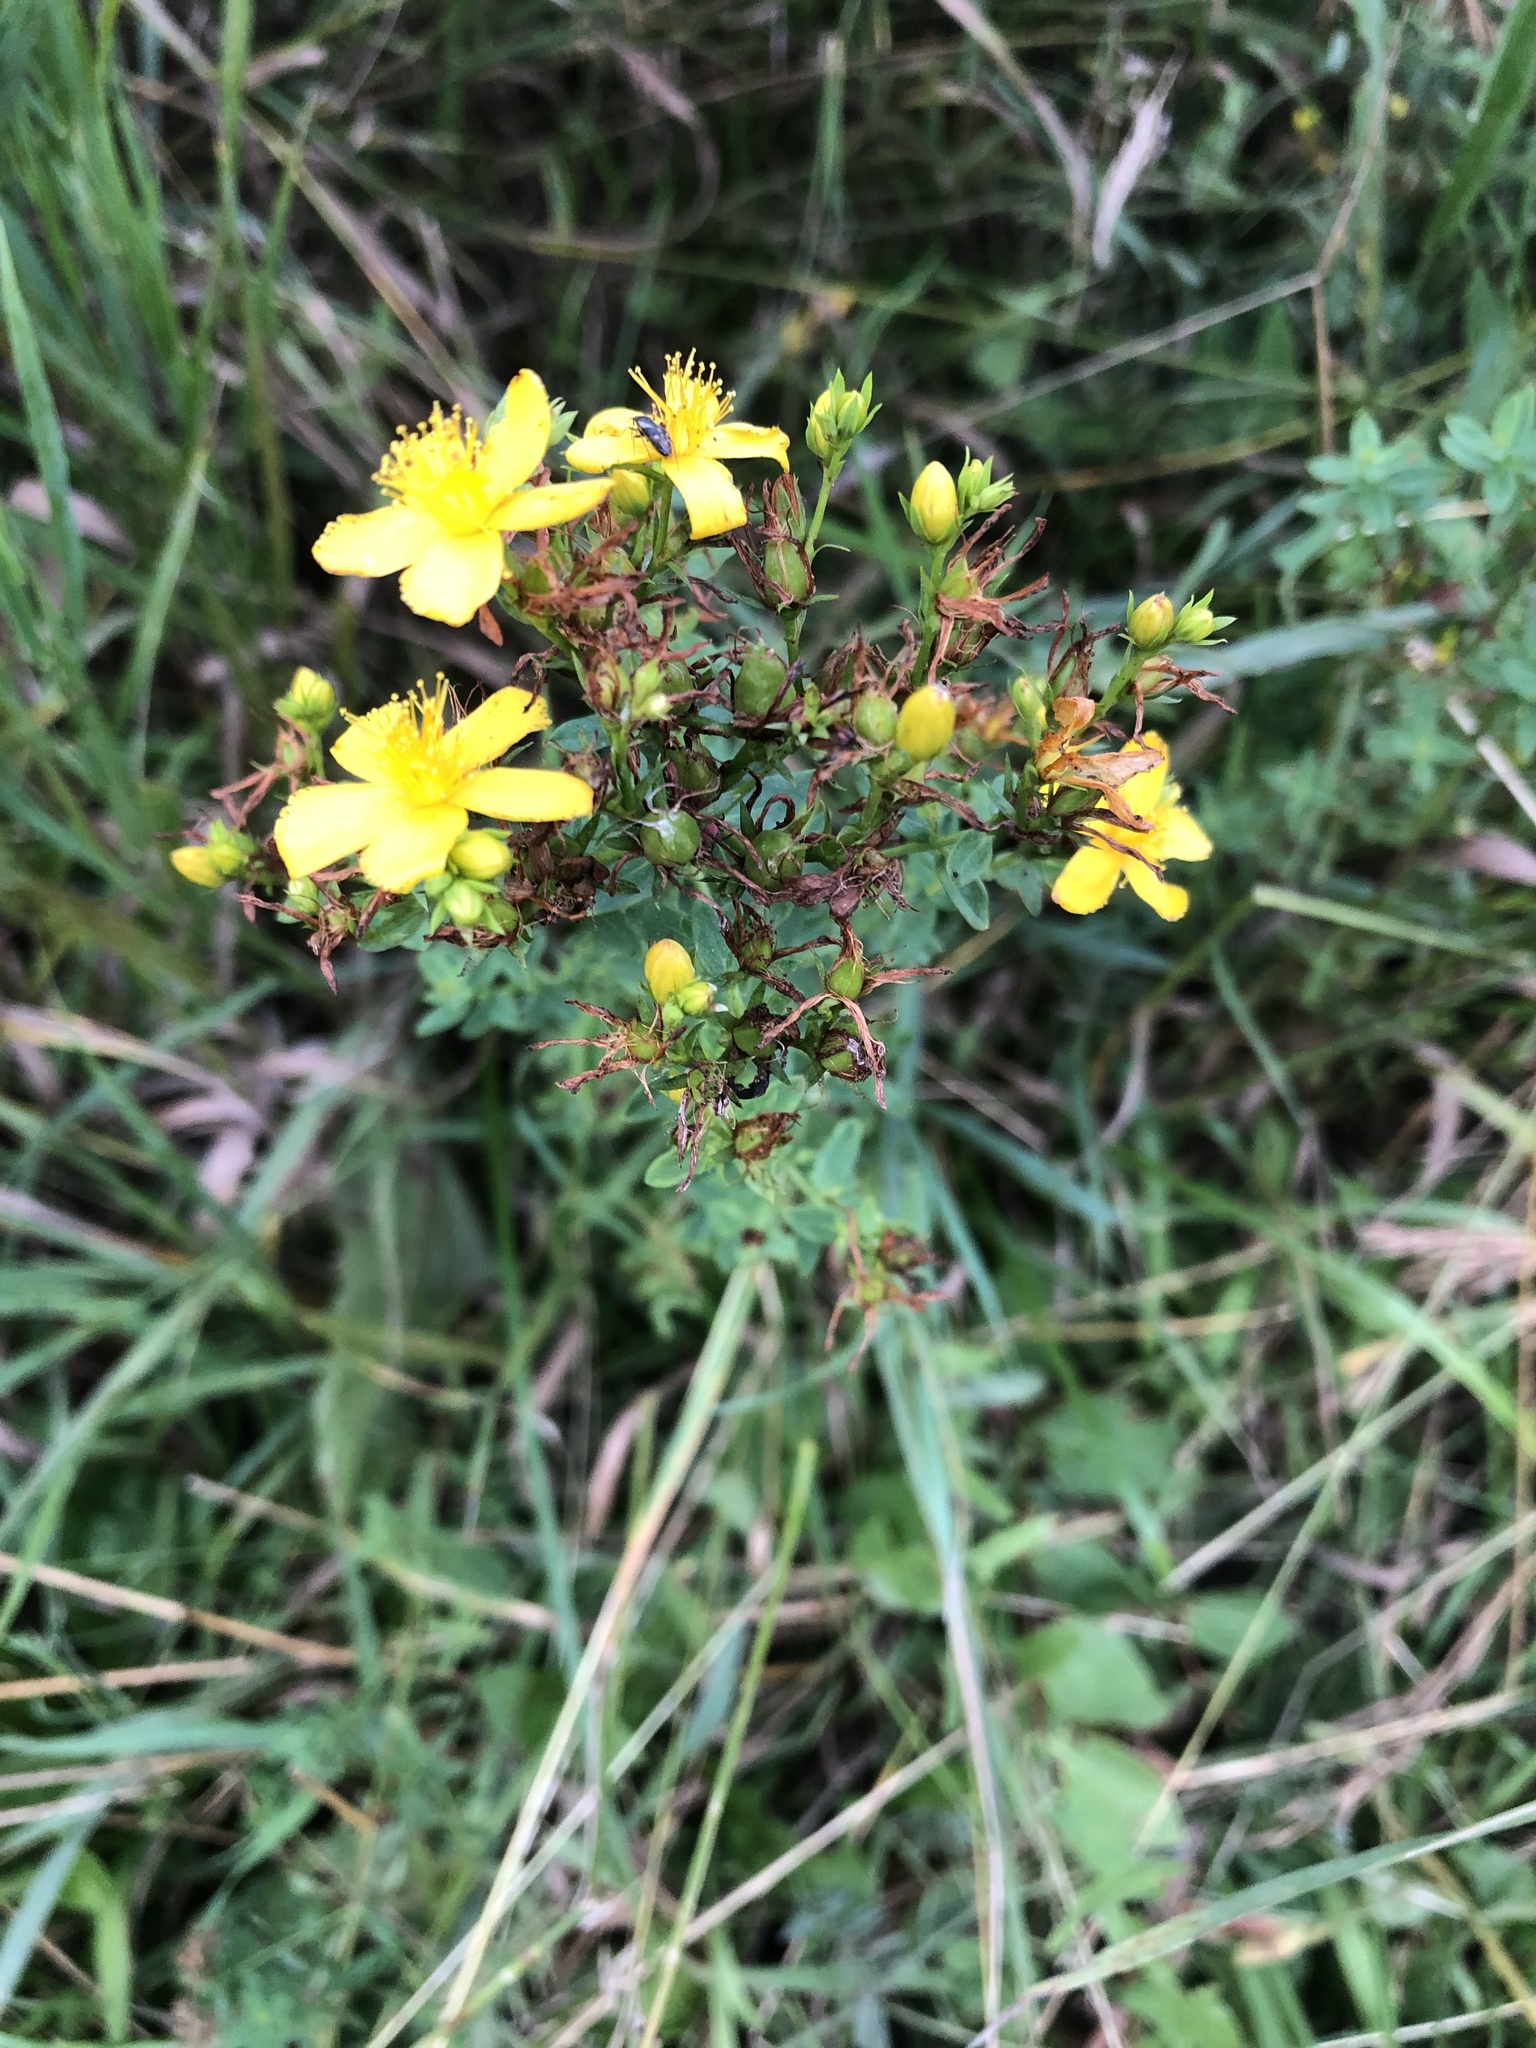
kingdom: Plantae
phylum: Tracheophyta
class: Magnoliopsida
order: Malpighiales
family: Hypericaceae
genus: Hypericum
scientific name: Hypericum perforatum
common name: Common st. johnswort
